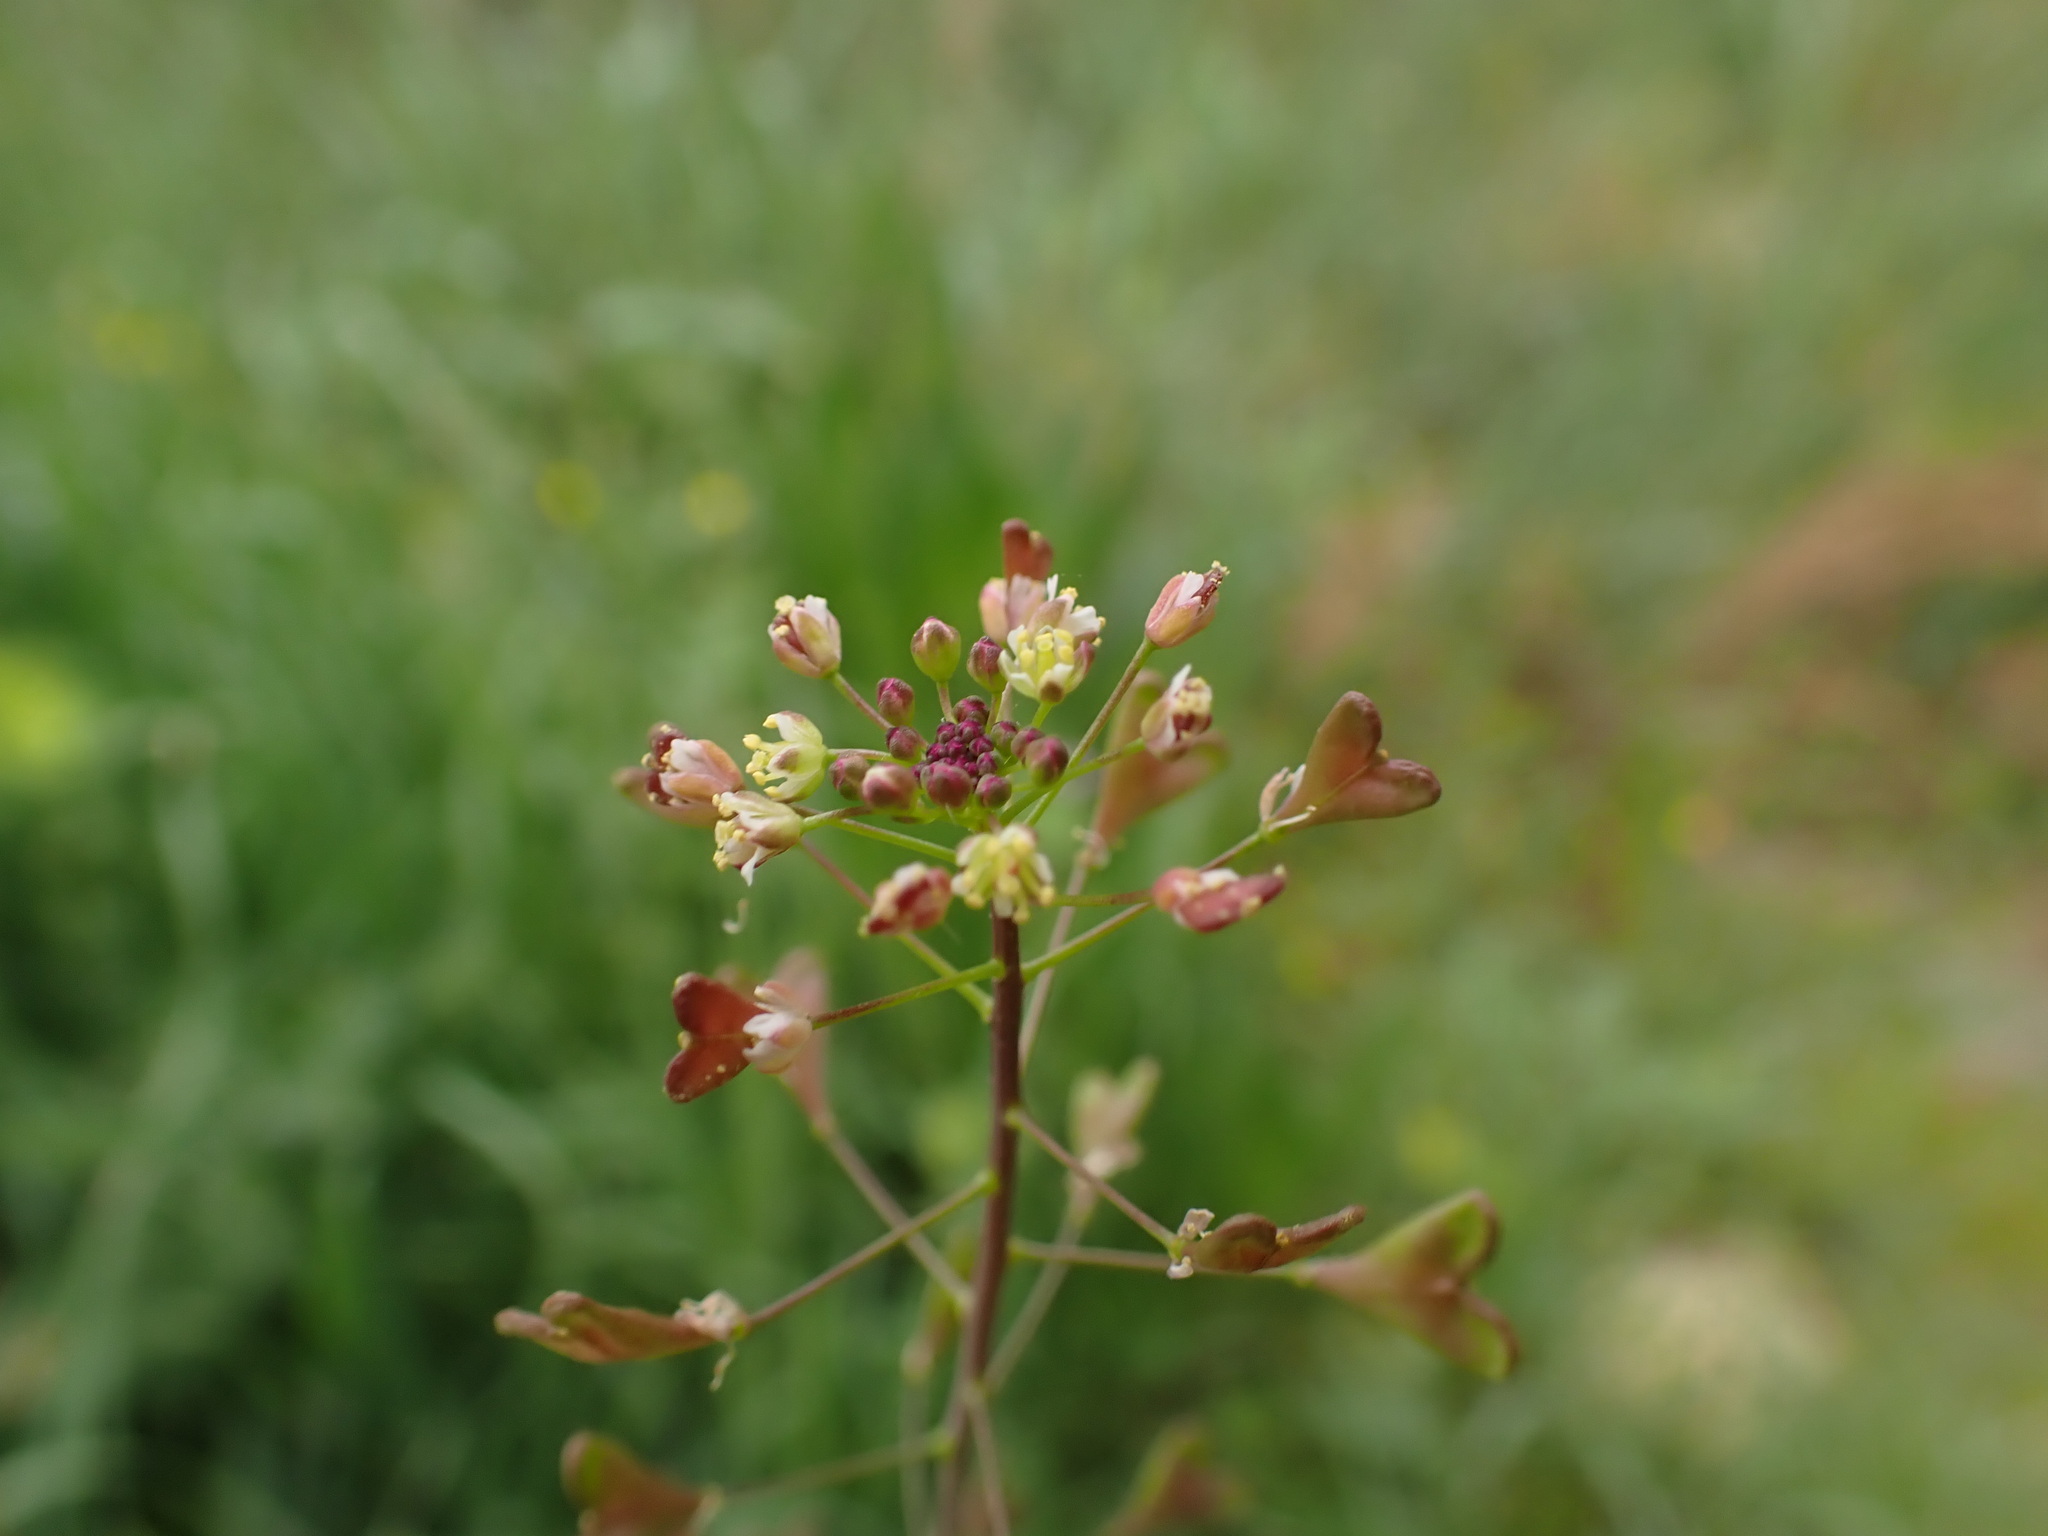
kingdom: Plantae
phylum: Tracheophyta
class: Magnoliopsida
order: Brassicales
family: Brassicaceae
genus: Capsella
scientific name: Capsella rubella
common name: Pink shepherd's-purse
